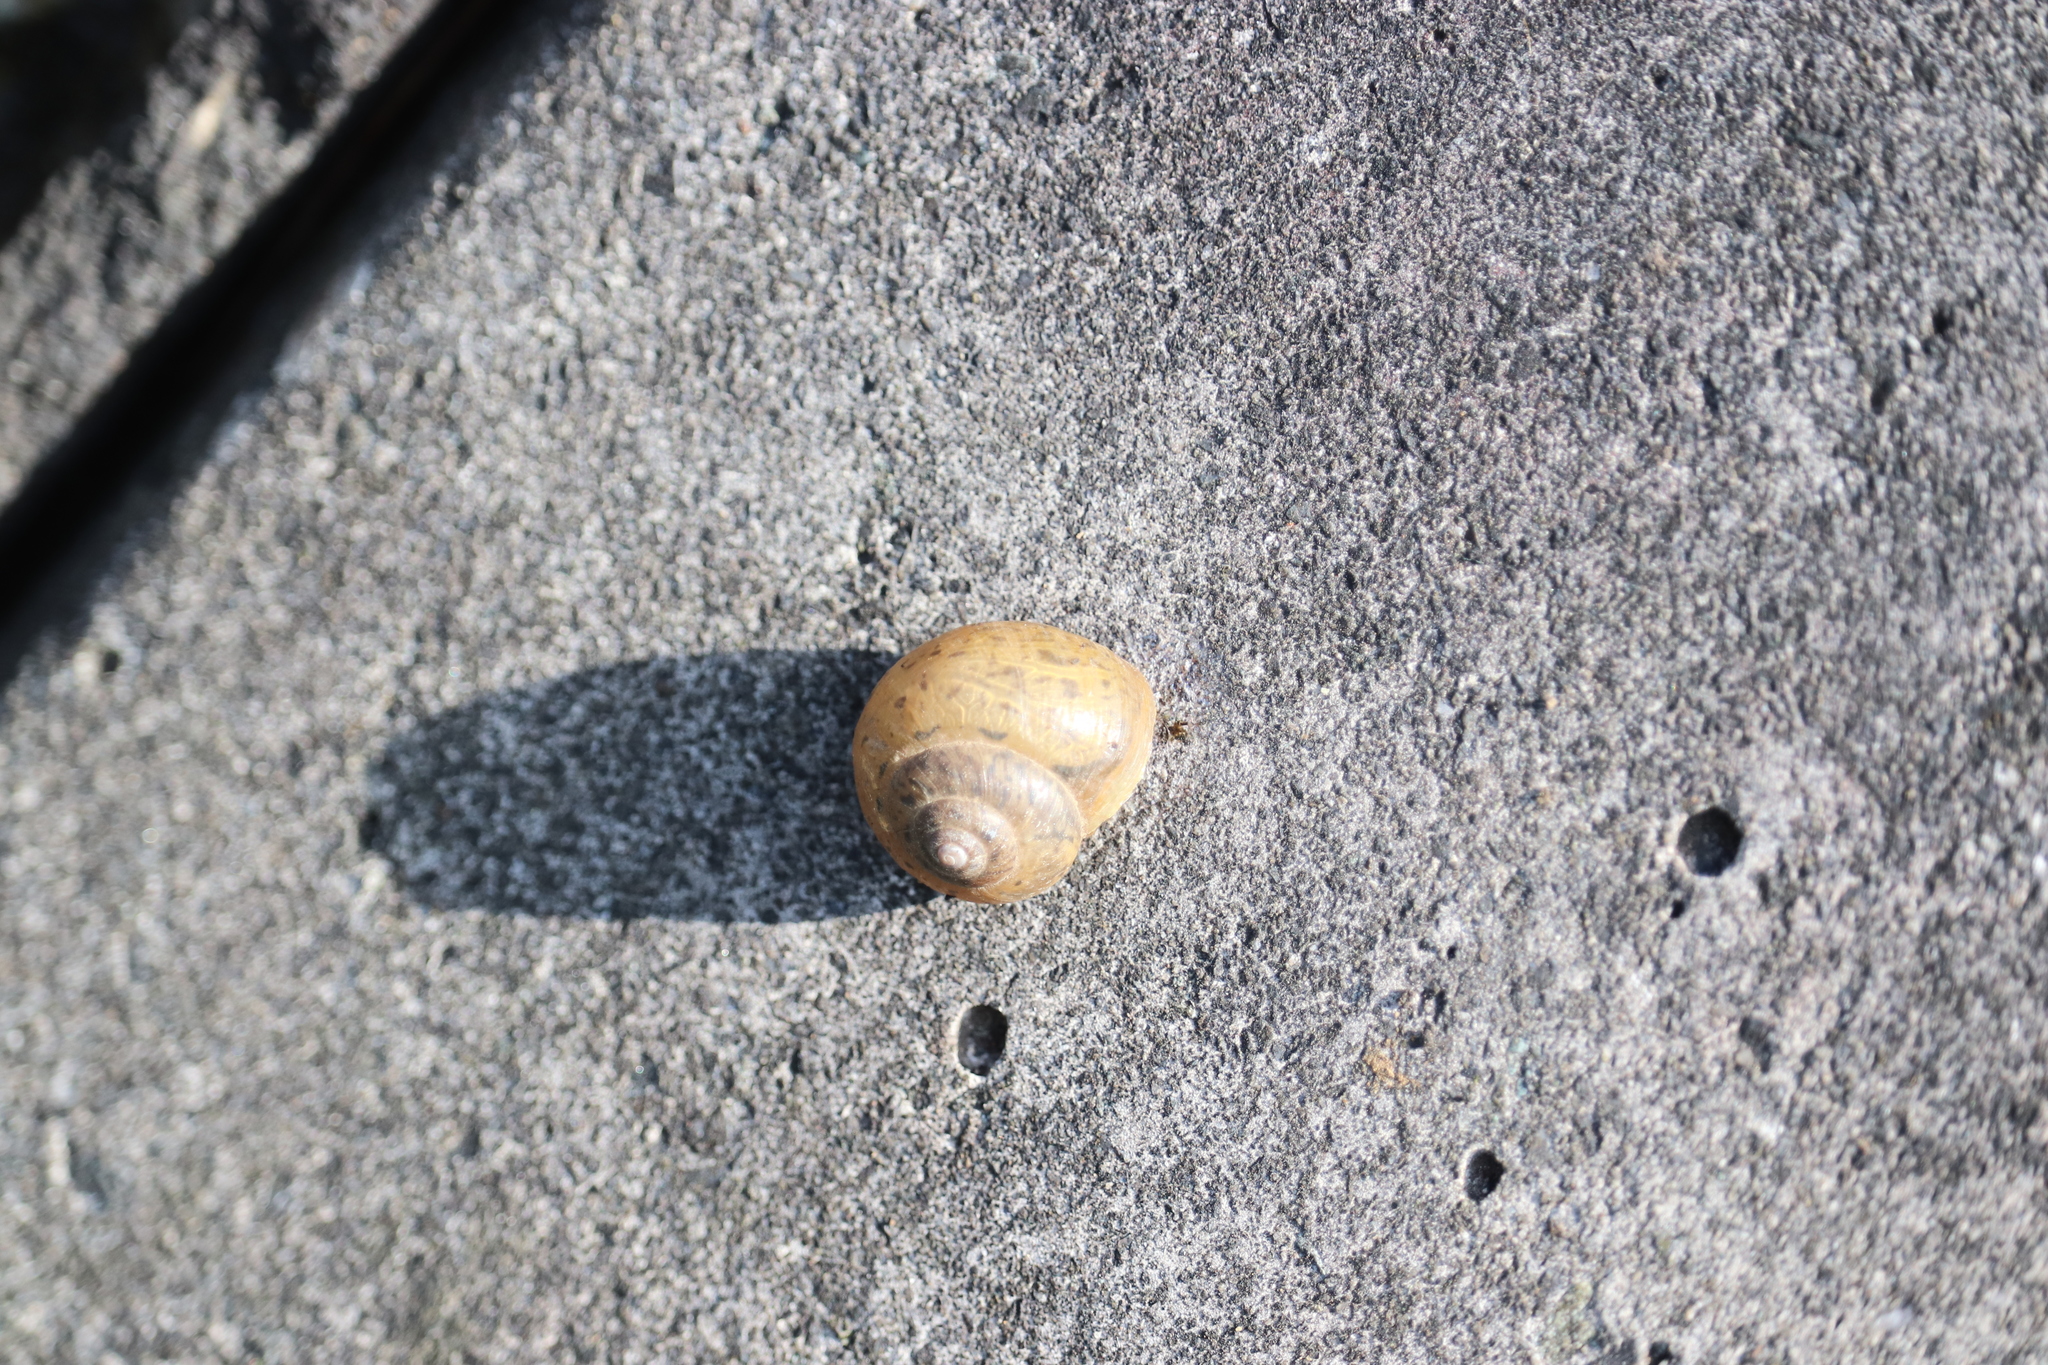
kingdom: Animalia
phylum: Mollusca
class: Gastropoda
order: Stylommatophora
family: Camaenidae
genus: Acusta
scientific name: Acusta sieboldtiana
